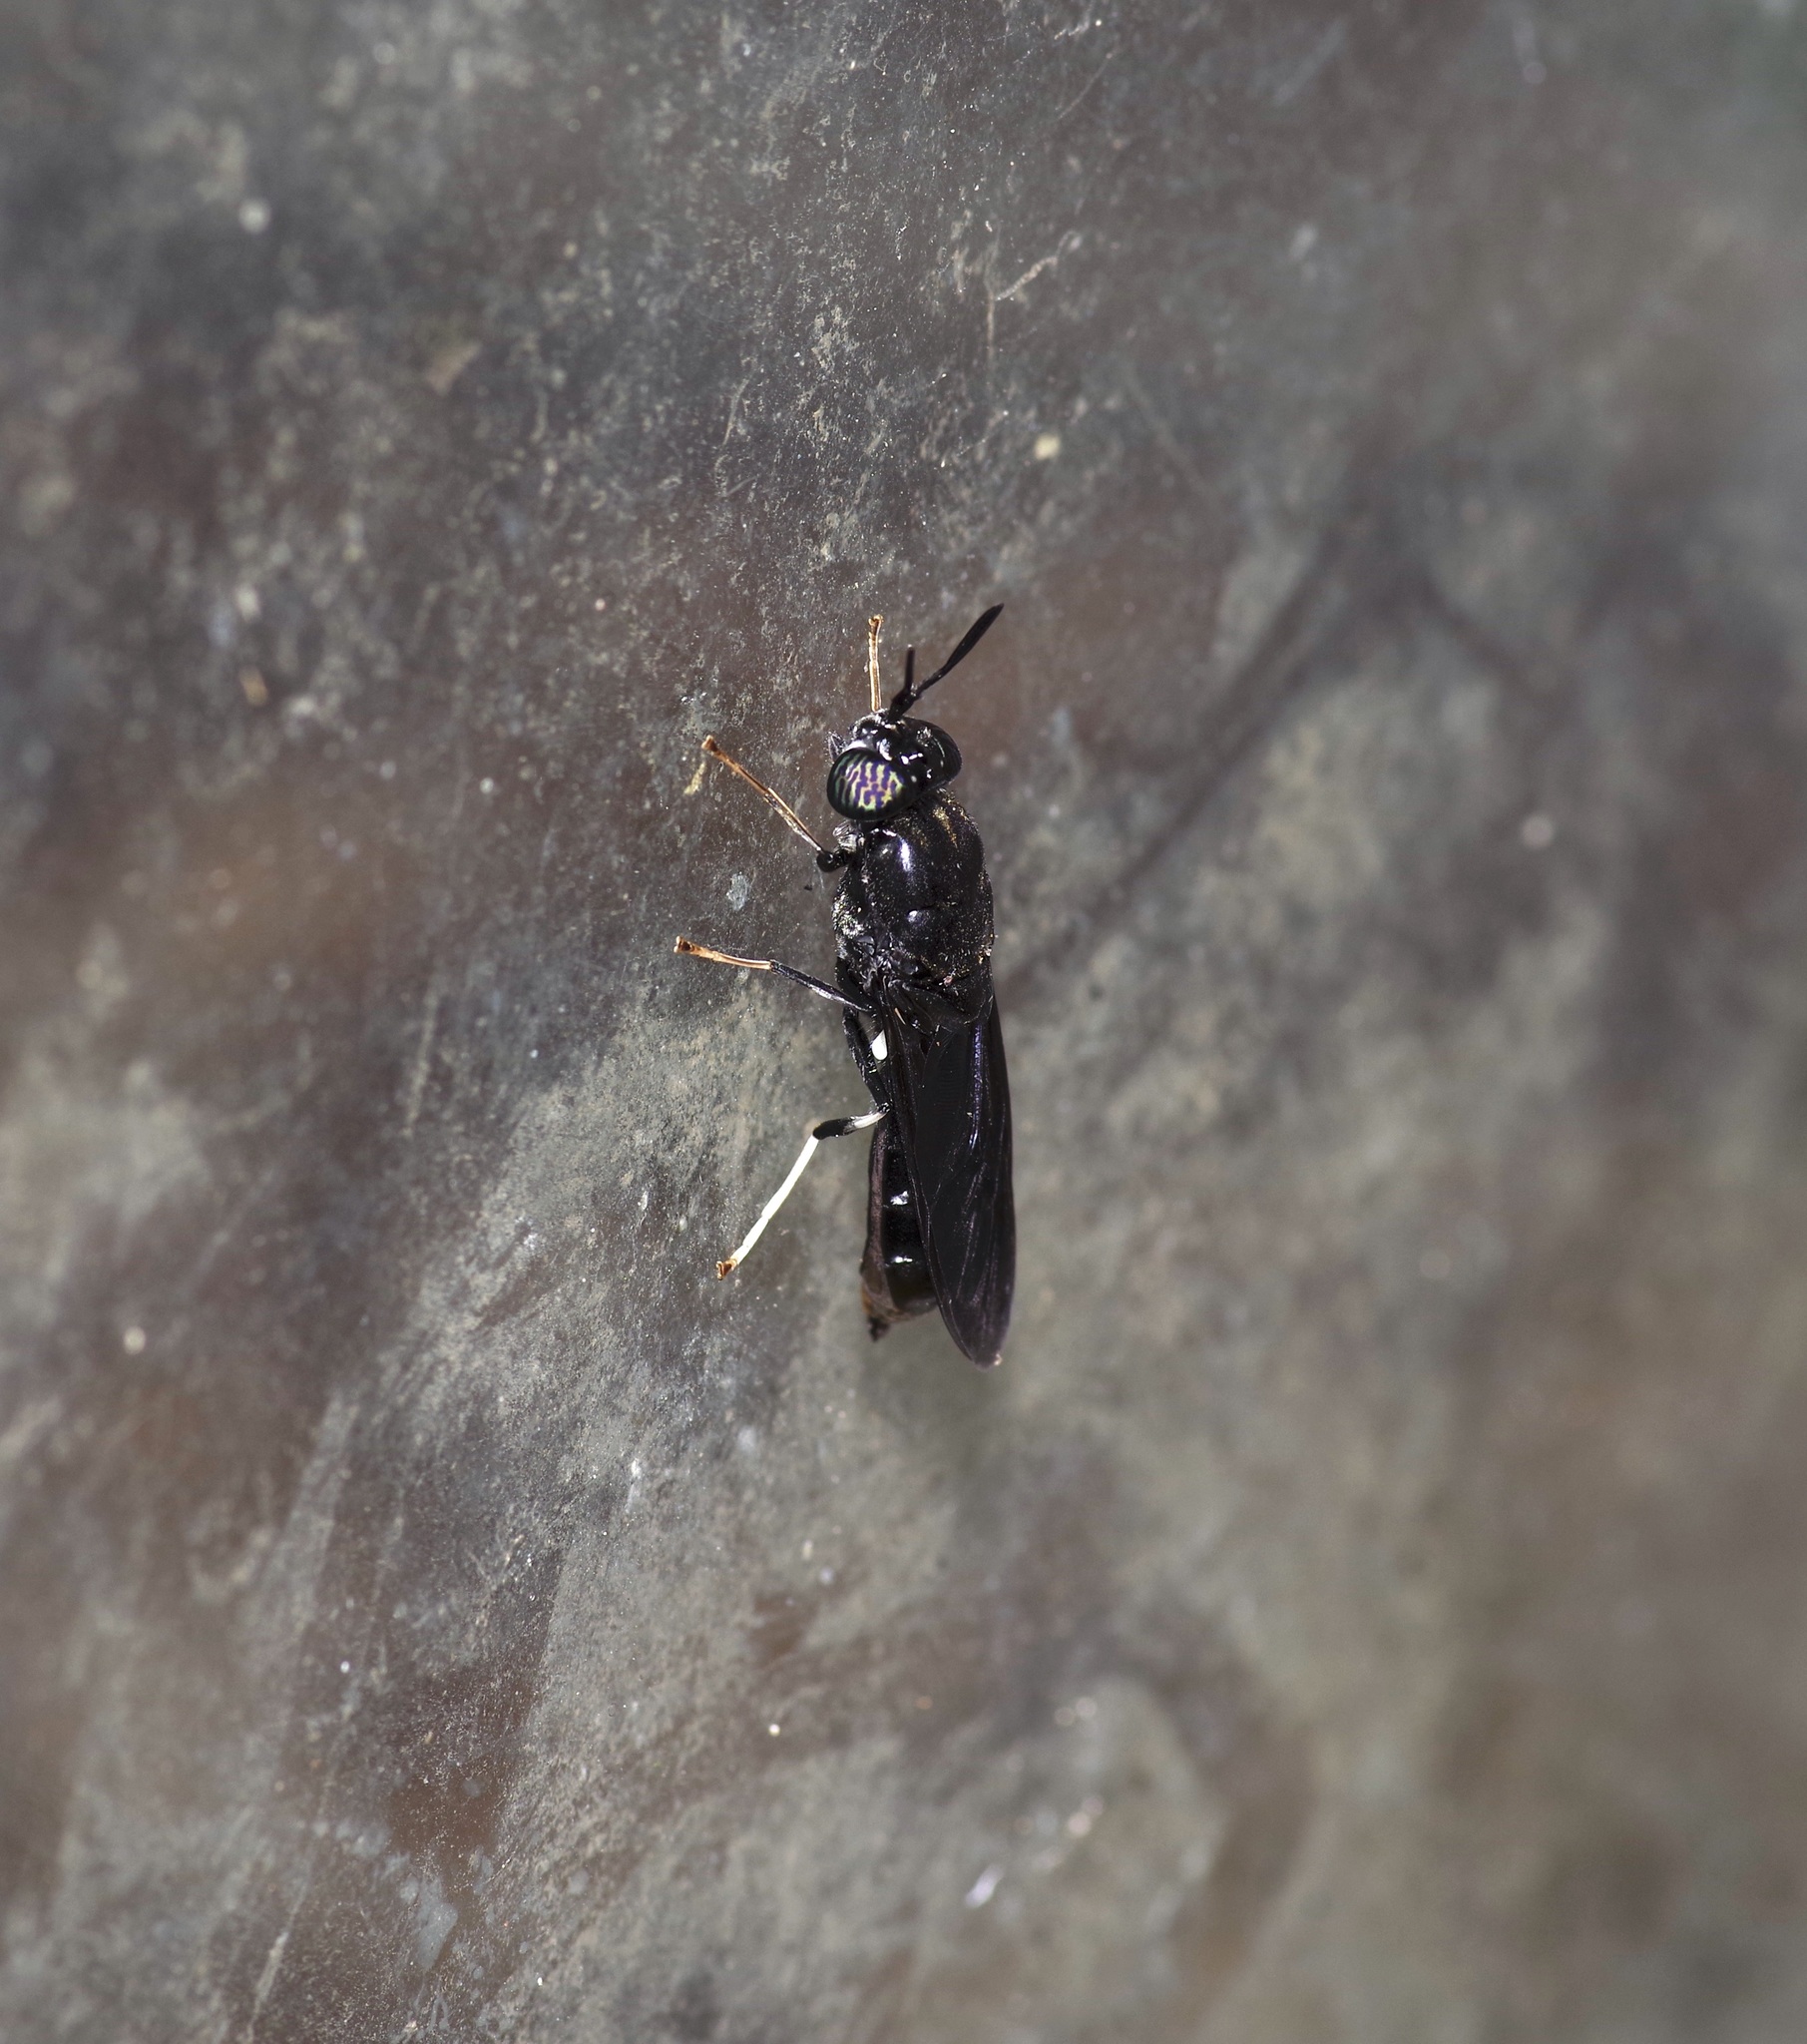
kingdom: Animalia
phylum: Arthropoda
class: Insecta
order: Diptera
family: Stratiomyidae
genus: Hermetia
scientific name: Hermetia illucens
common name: Black soldier fly
